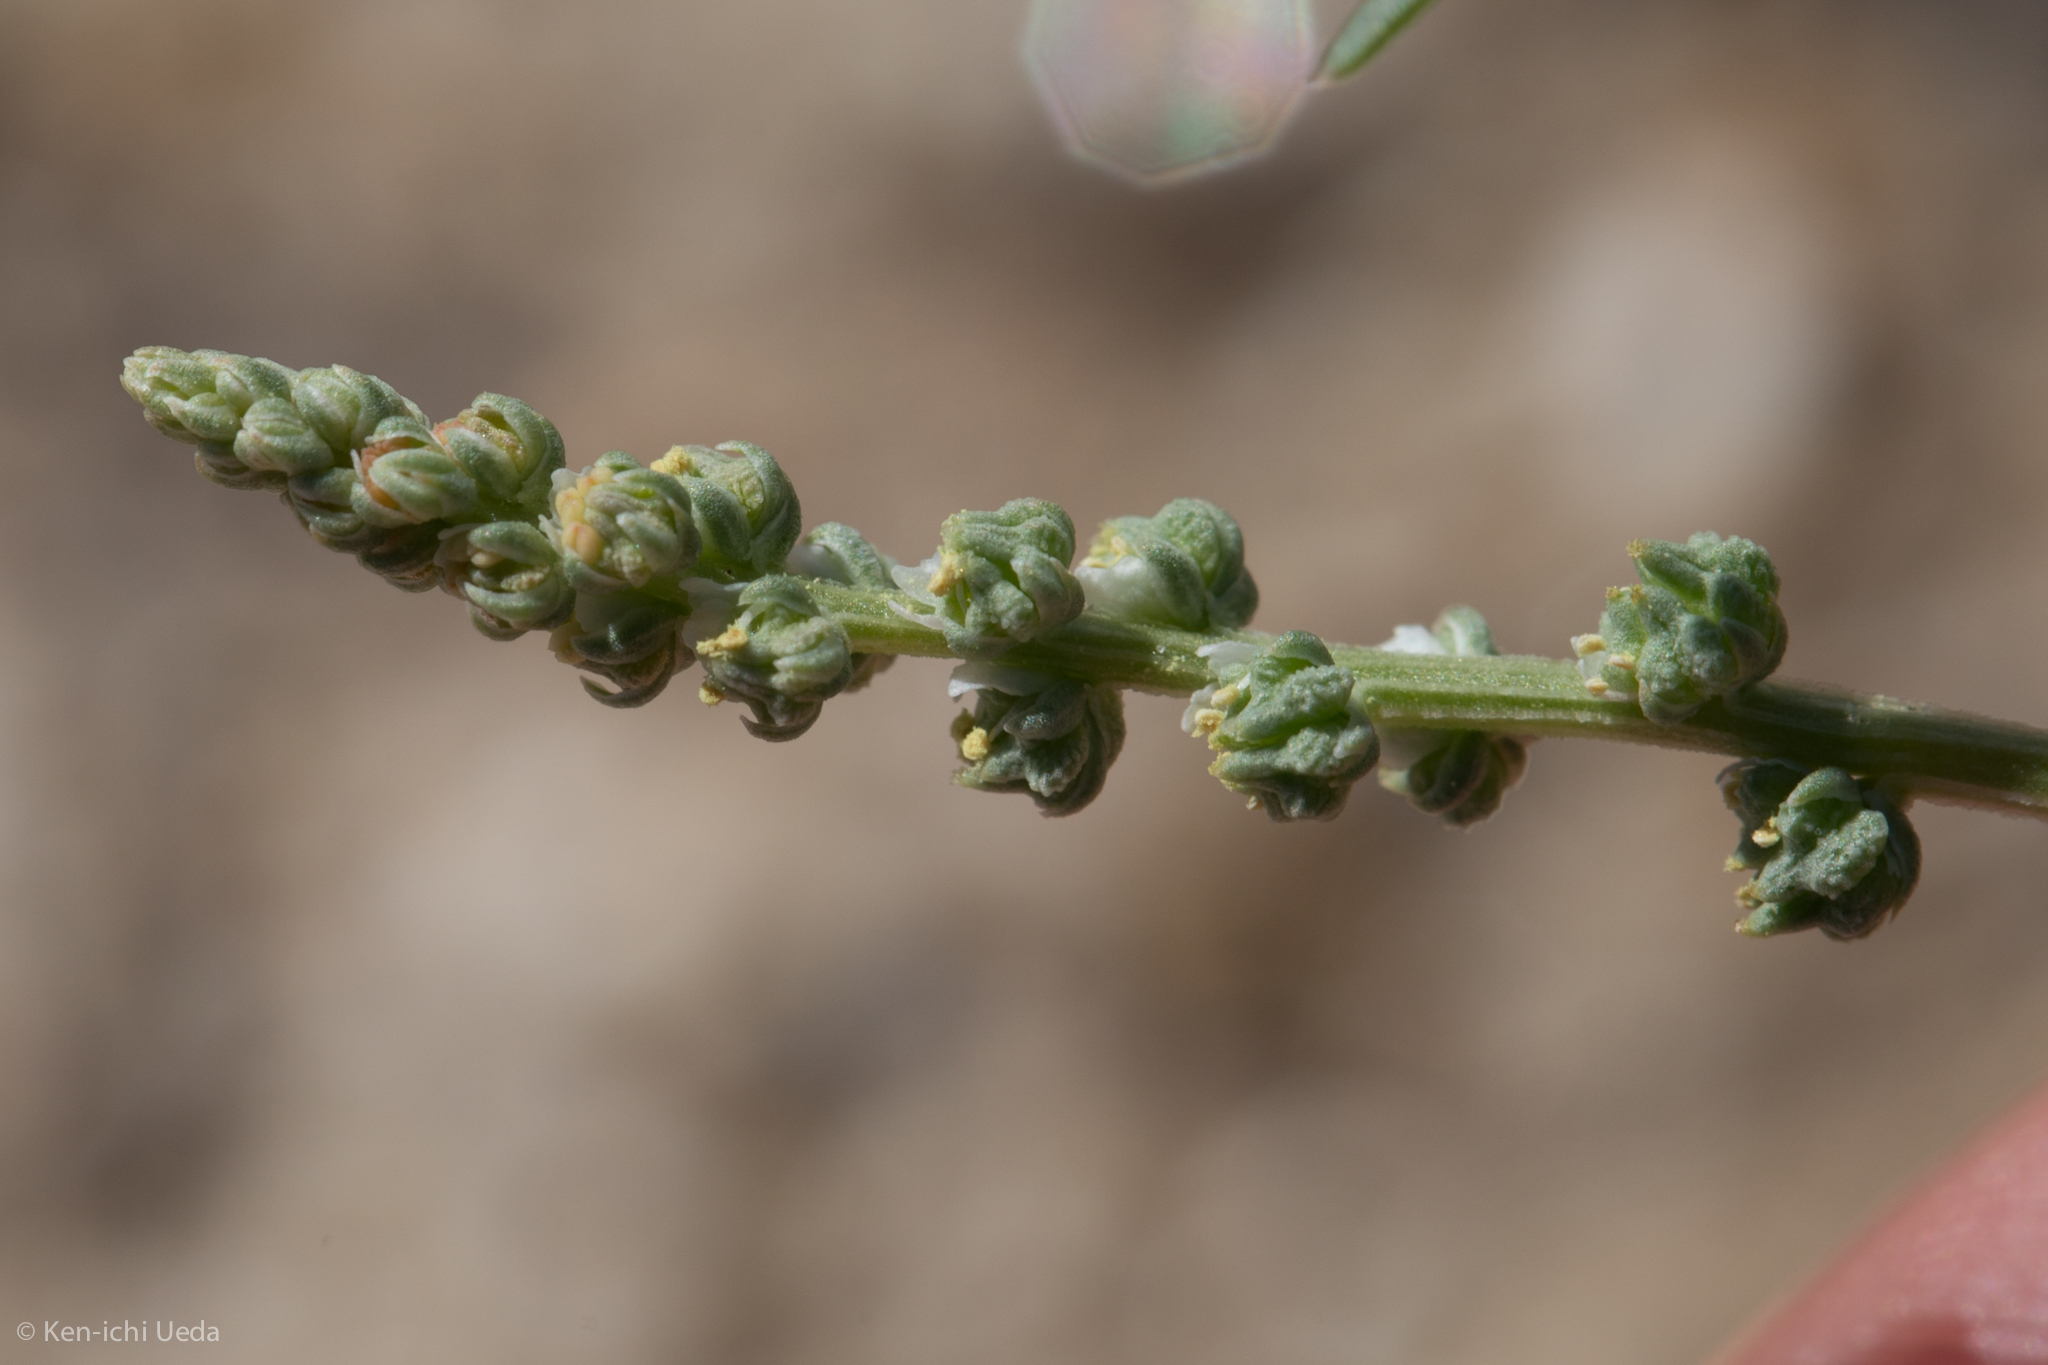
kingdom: Plantae
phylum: Tracheophyta
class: Magnoliopsida
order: Brassicales
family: Resedaceae
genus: Oligomeris
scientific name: Oligomeris linifolia
